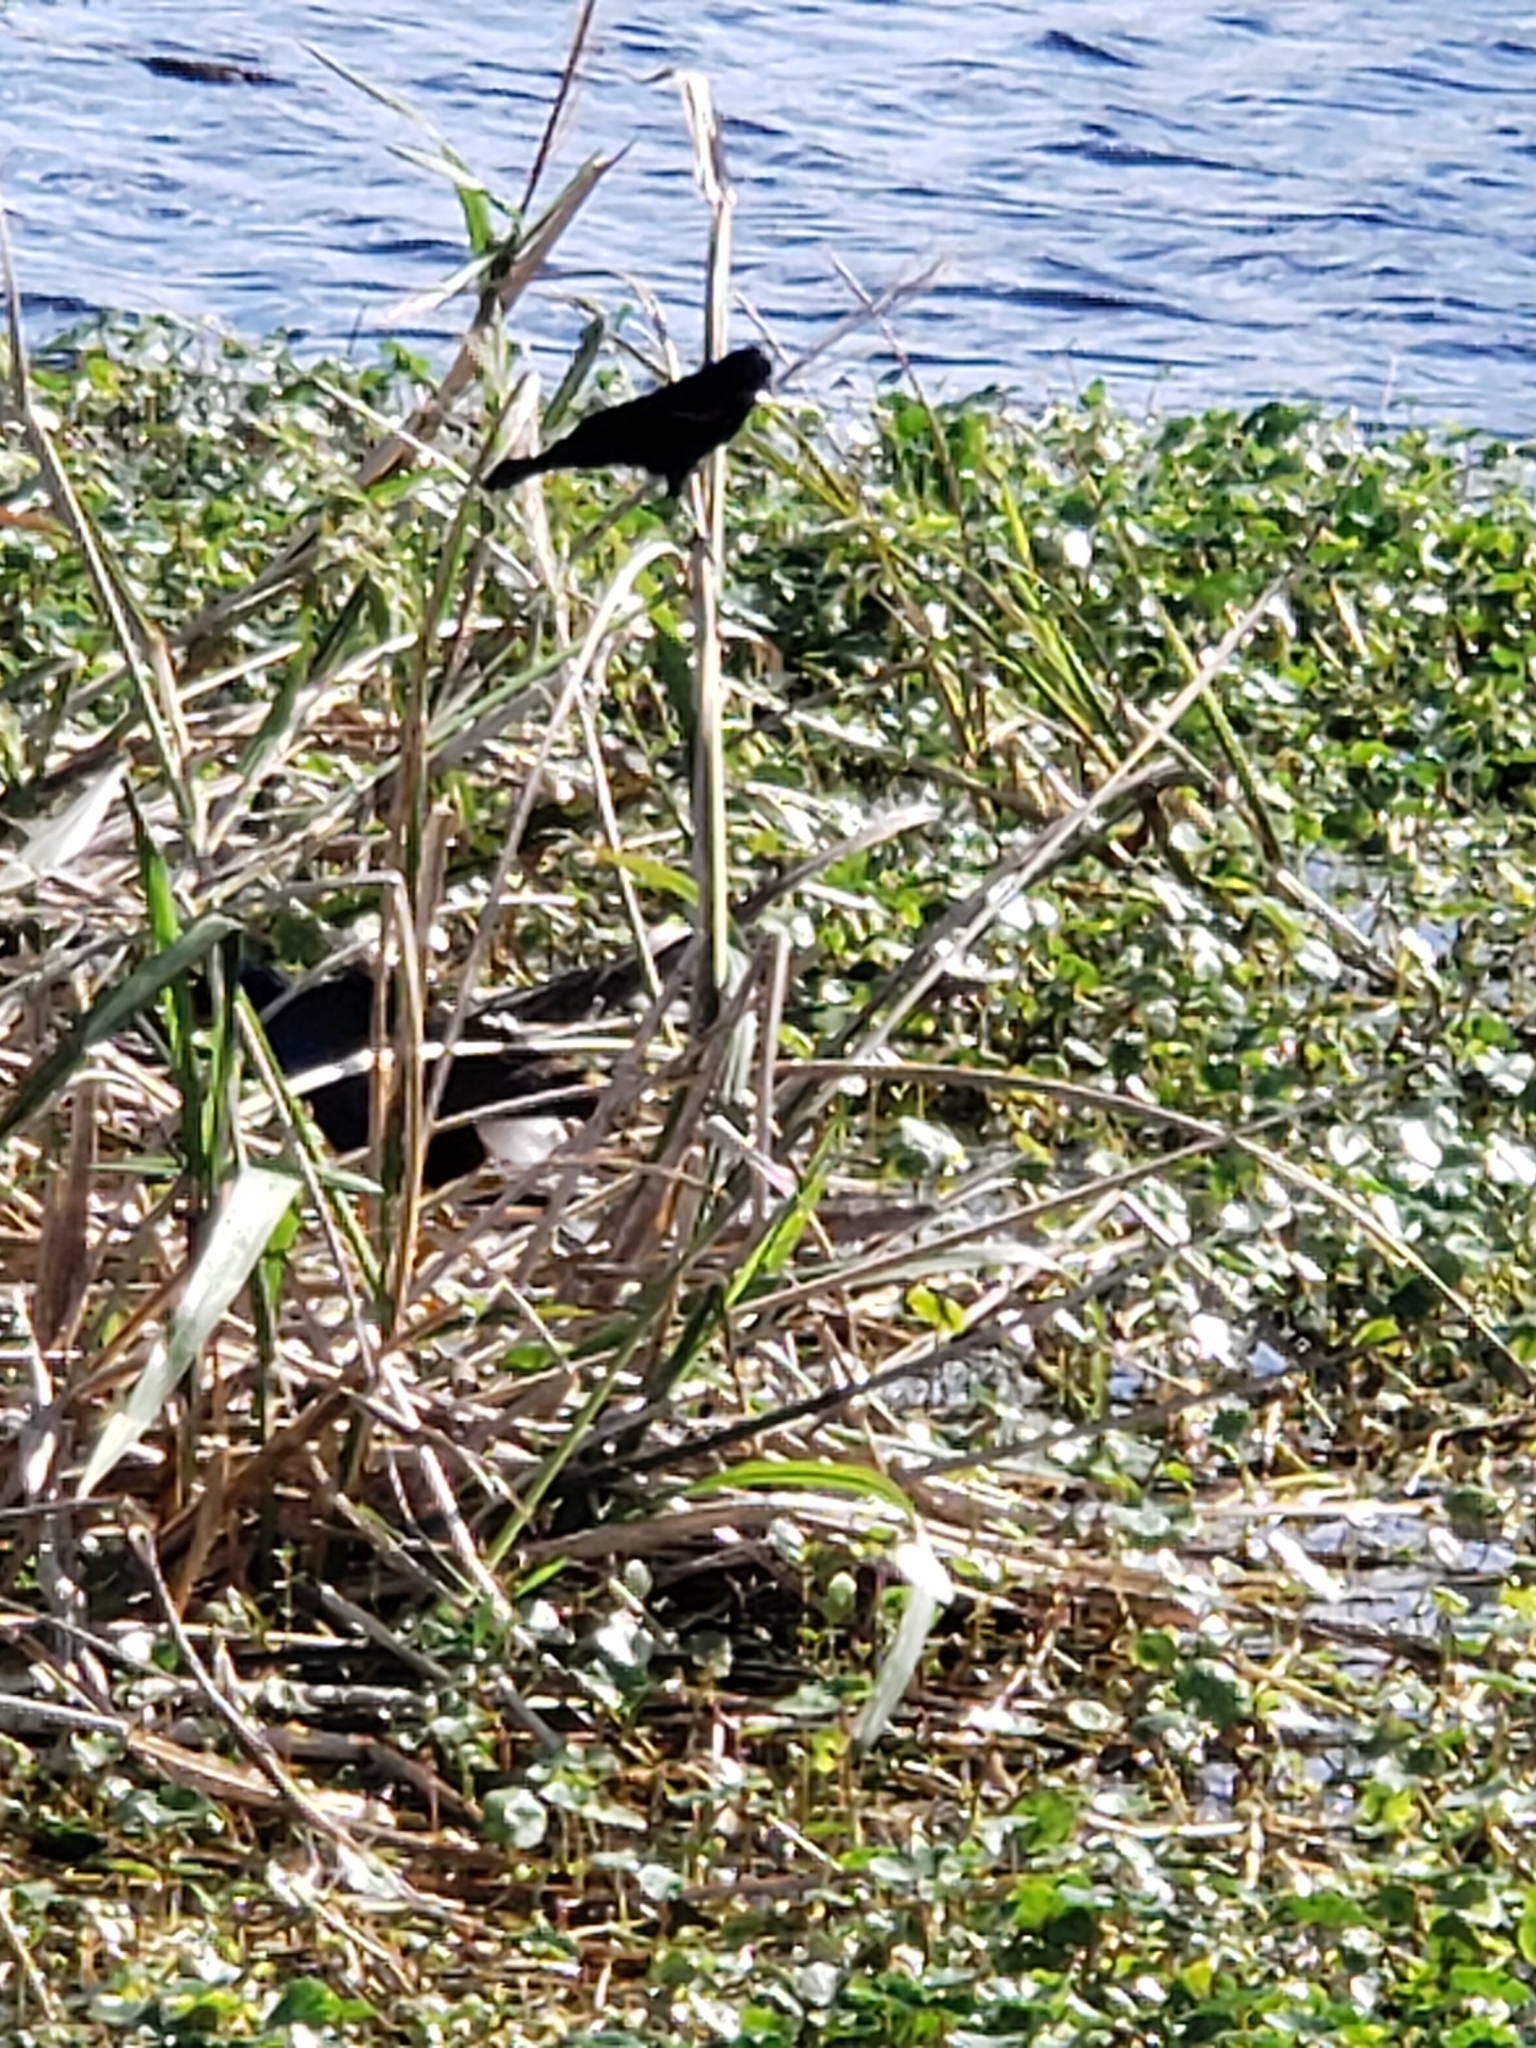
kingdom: Animalia
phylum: Chordata
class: Aves
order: Passeriformes
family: Icteridae
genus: Agelaius
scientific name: Agelaius phoeniceus
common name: Red-winged blackbird
